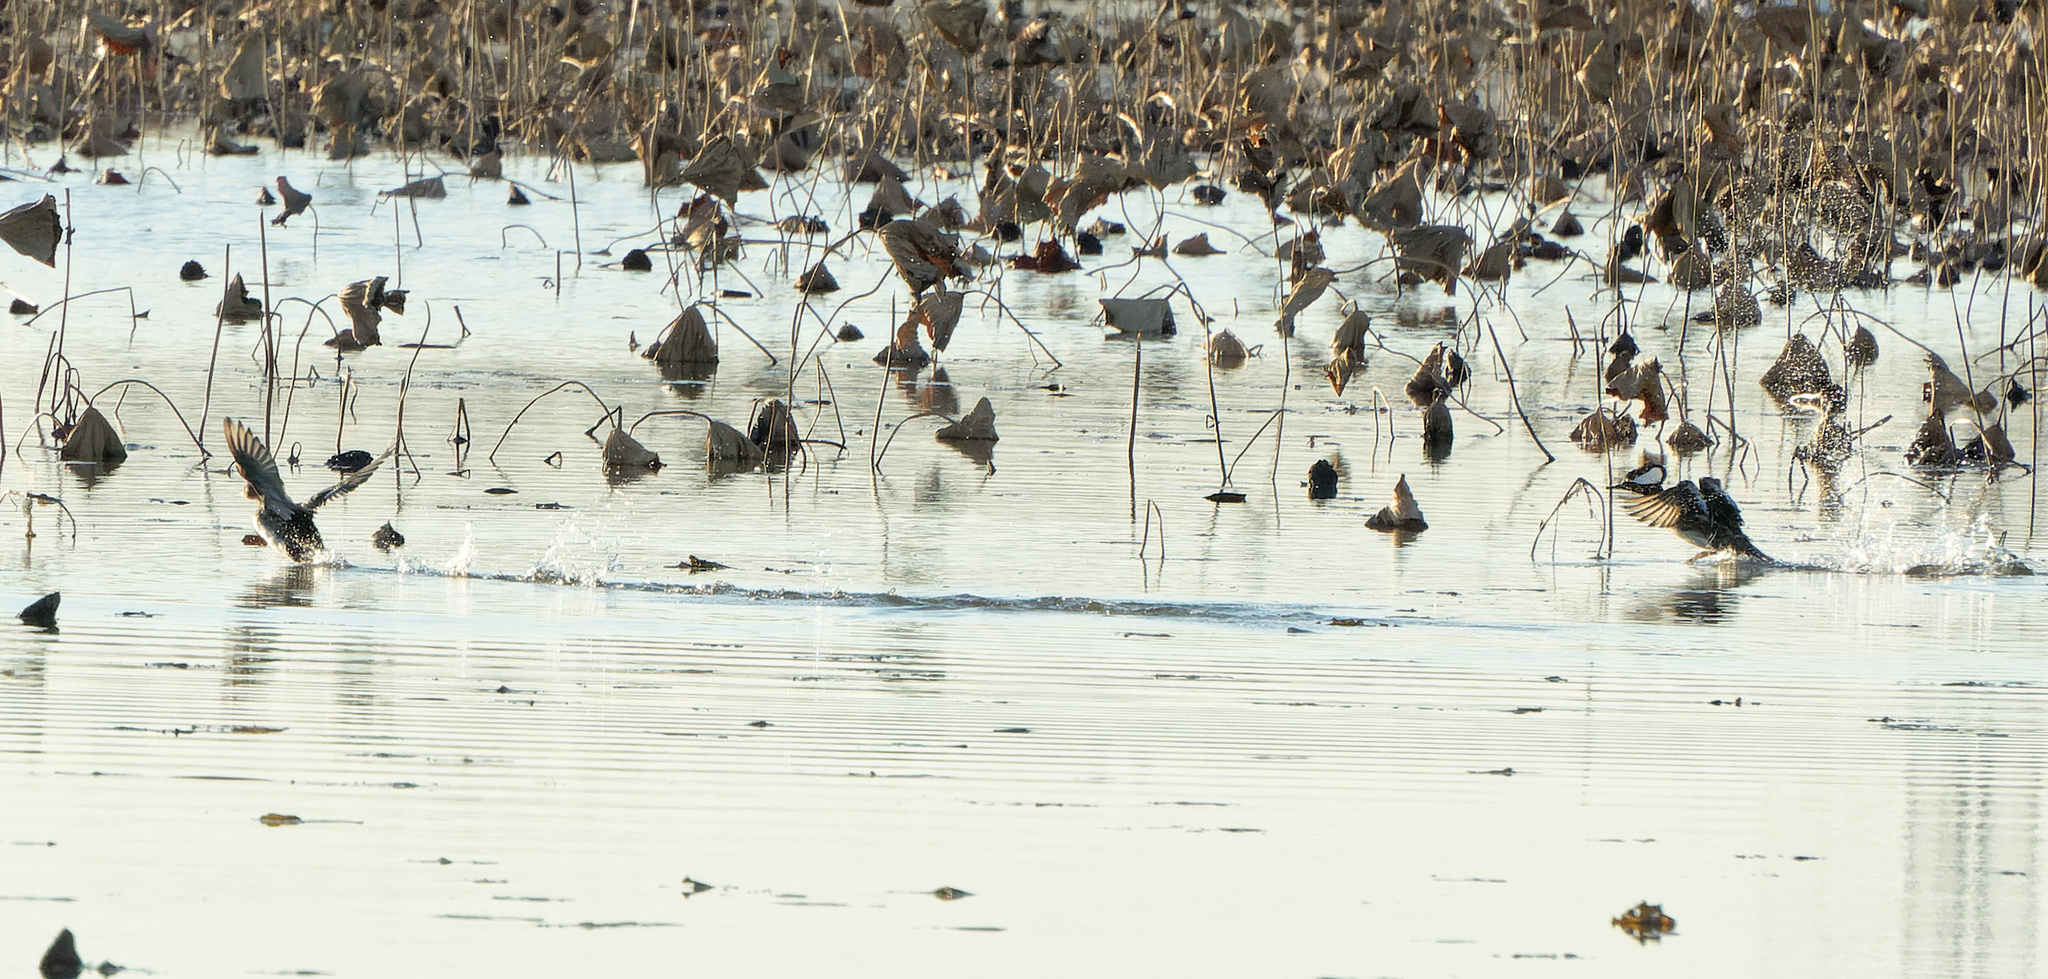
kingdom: Animalia
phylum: Chordata
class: Aves
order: Anseriformes
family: Anatidae
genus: Lophodytes
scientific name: Lophodytes cucullatus
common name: Hooded merganser
